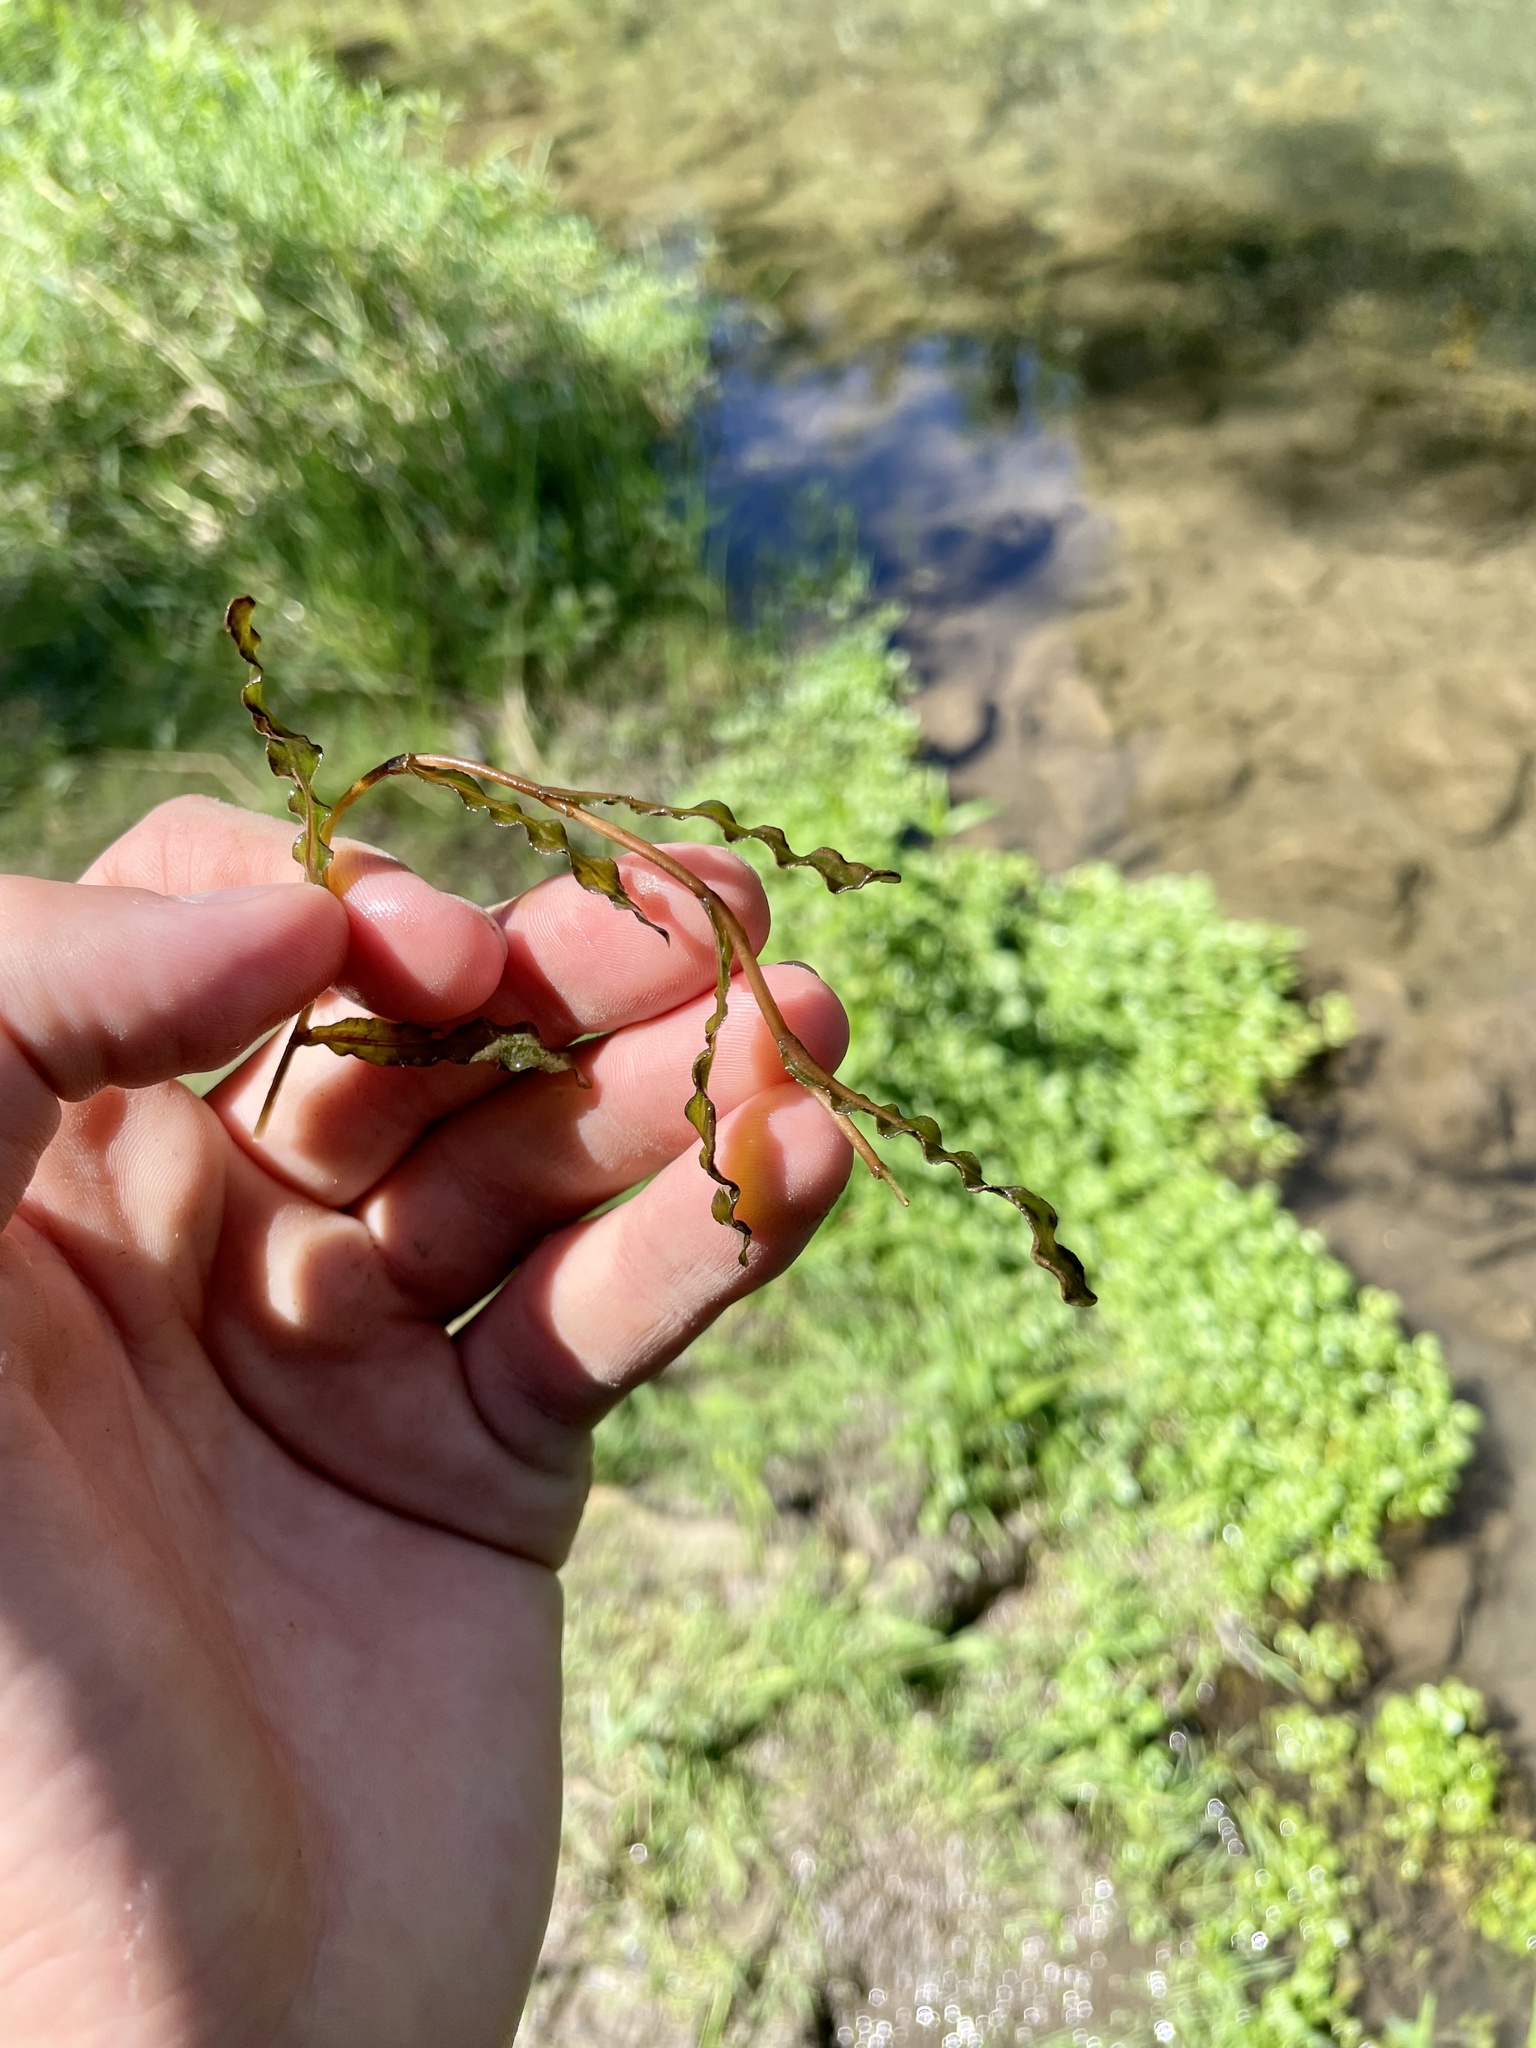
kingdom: Plantae
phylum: Tracheophyta
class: Liliopsida
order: Alismatales
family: Potamogetonaceae
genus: Potamogeton
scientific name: Potamogeton crispus
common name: Curled pondweed
